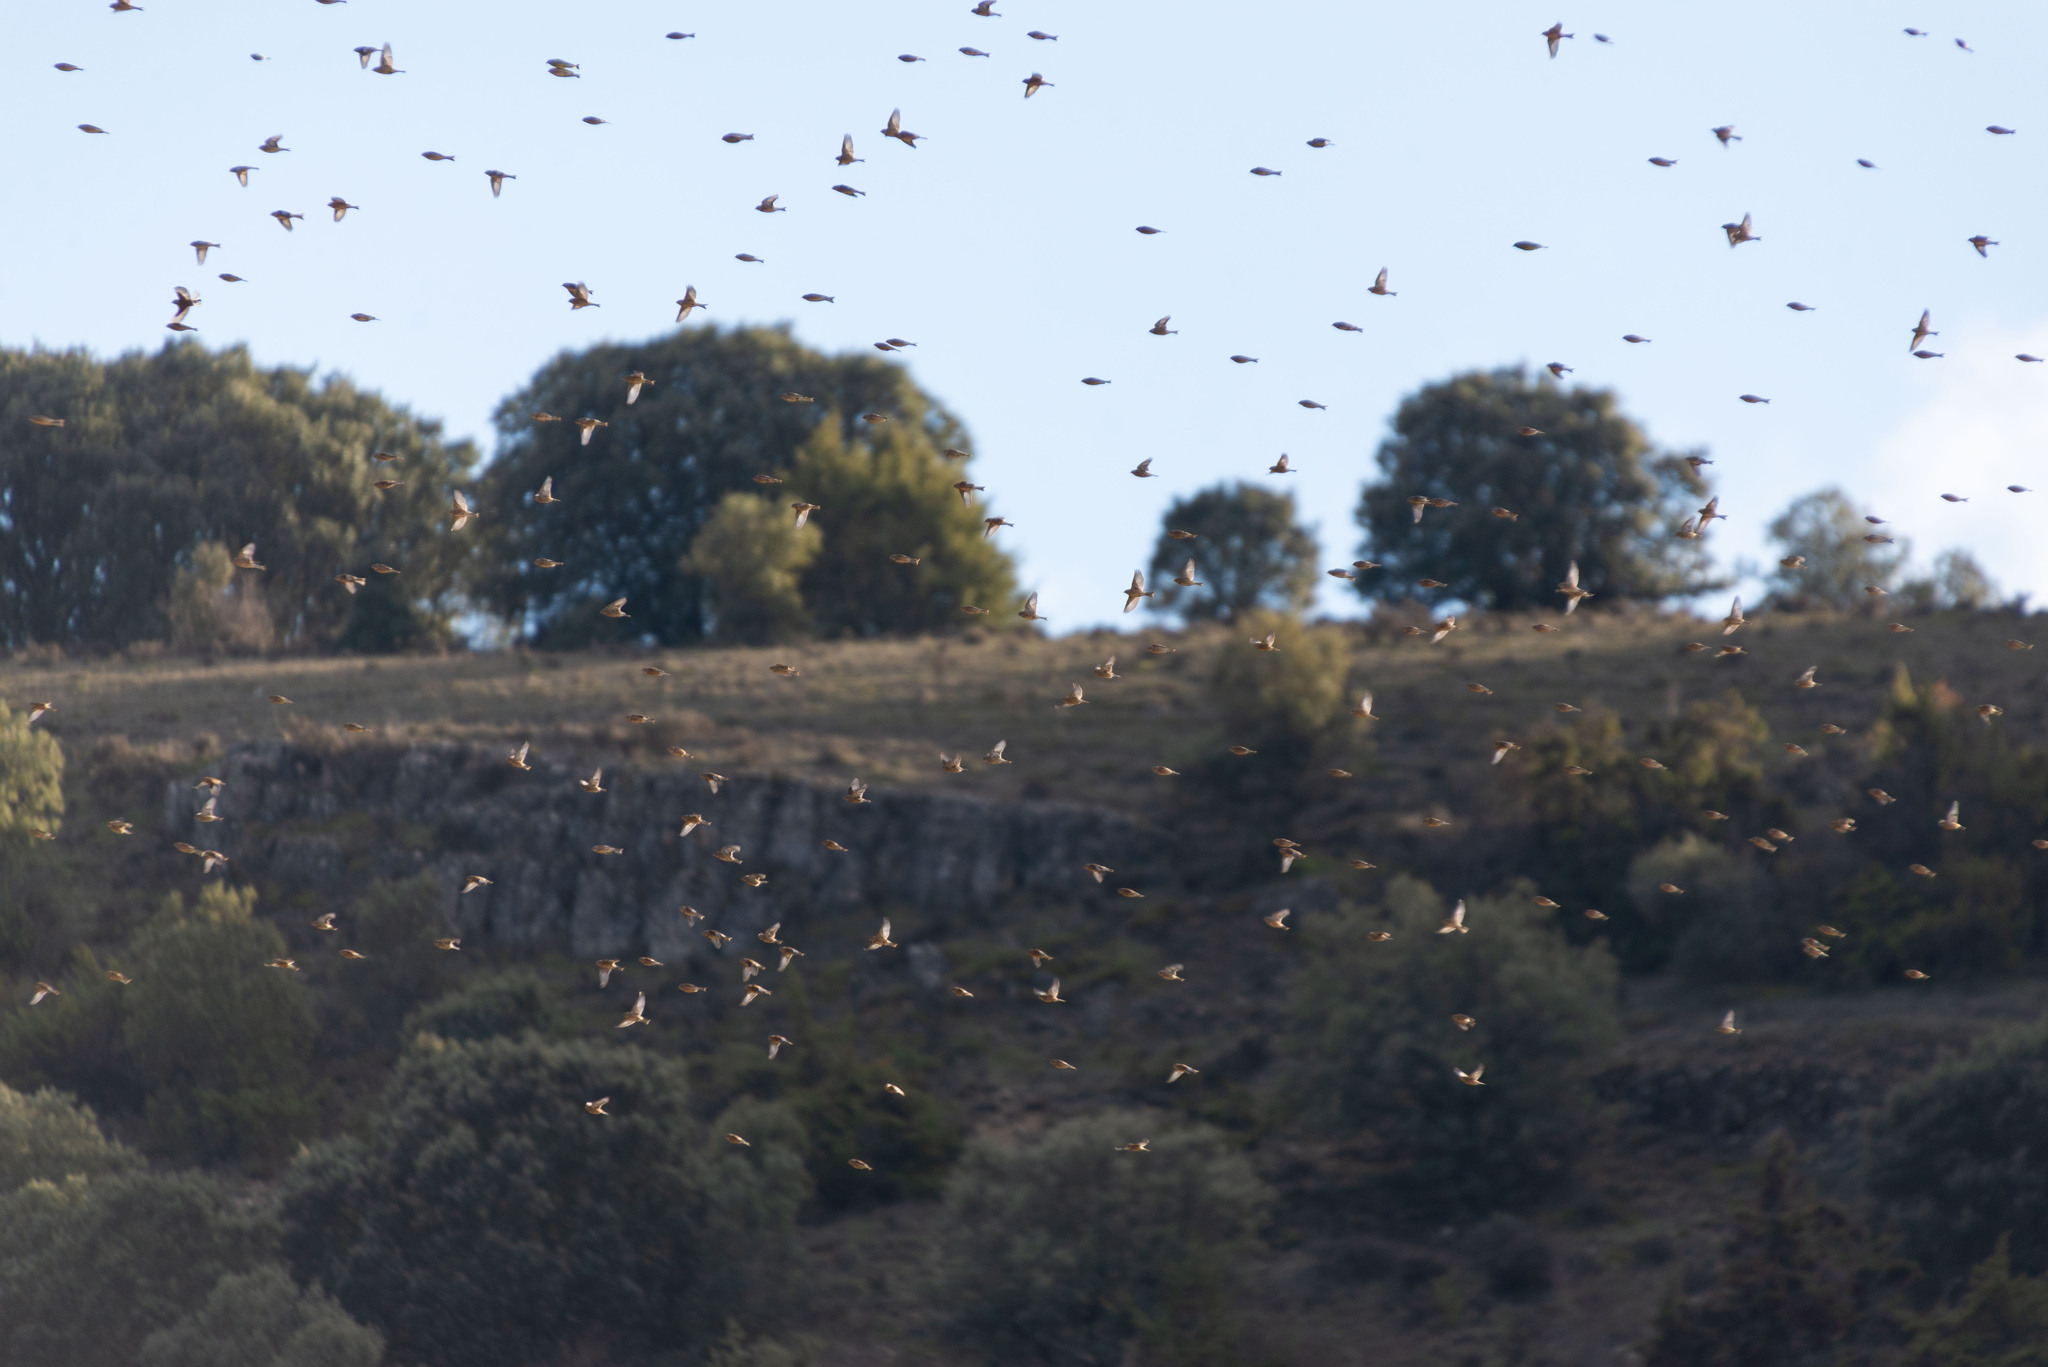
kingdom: Animalia
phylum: Chordata
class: Aves
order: Passeriformes
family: Fringillidae
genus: Linaria
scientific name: Linaria cannabina
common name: Common linnet
